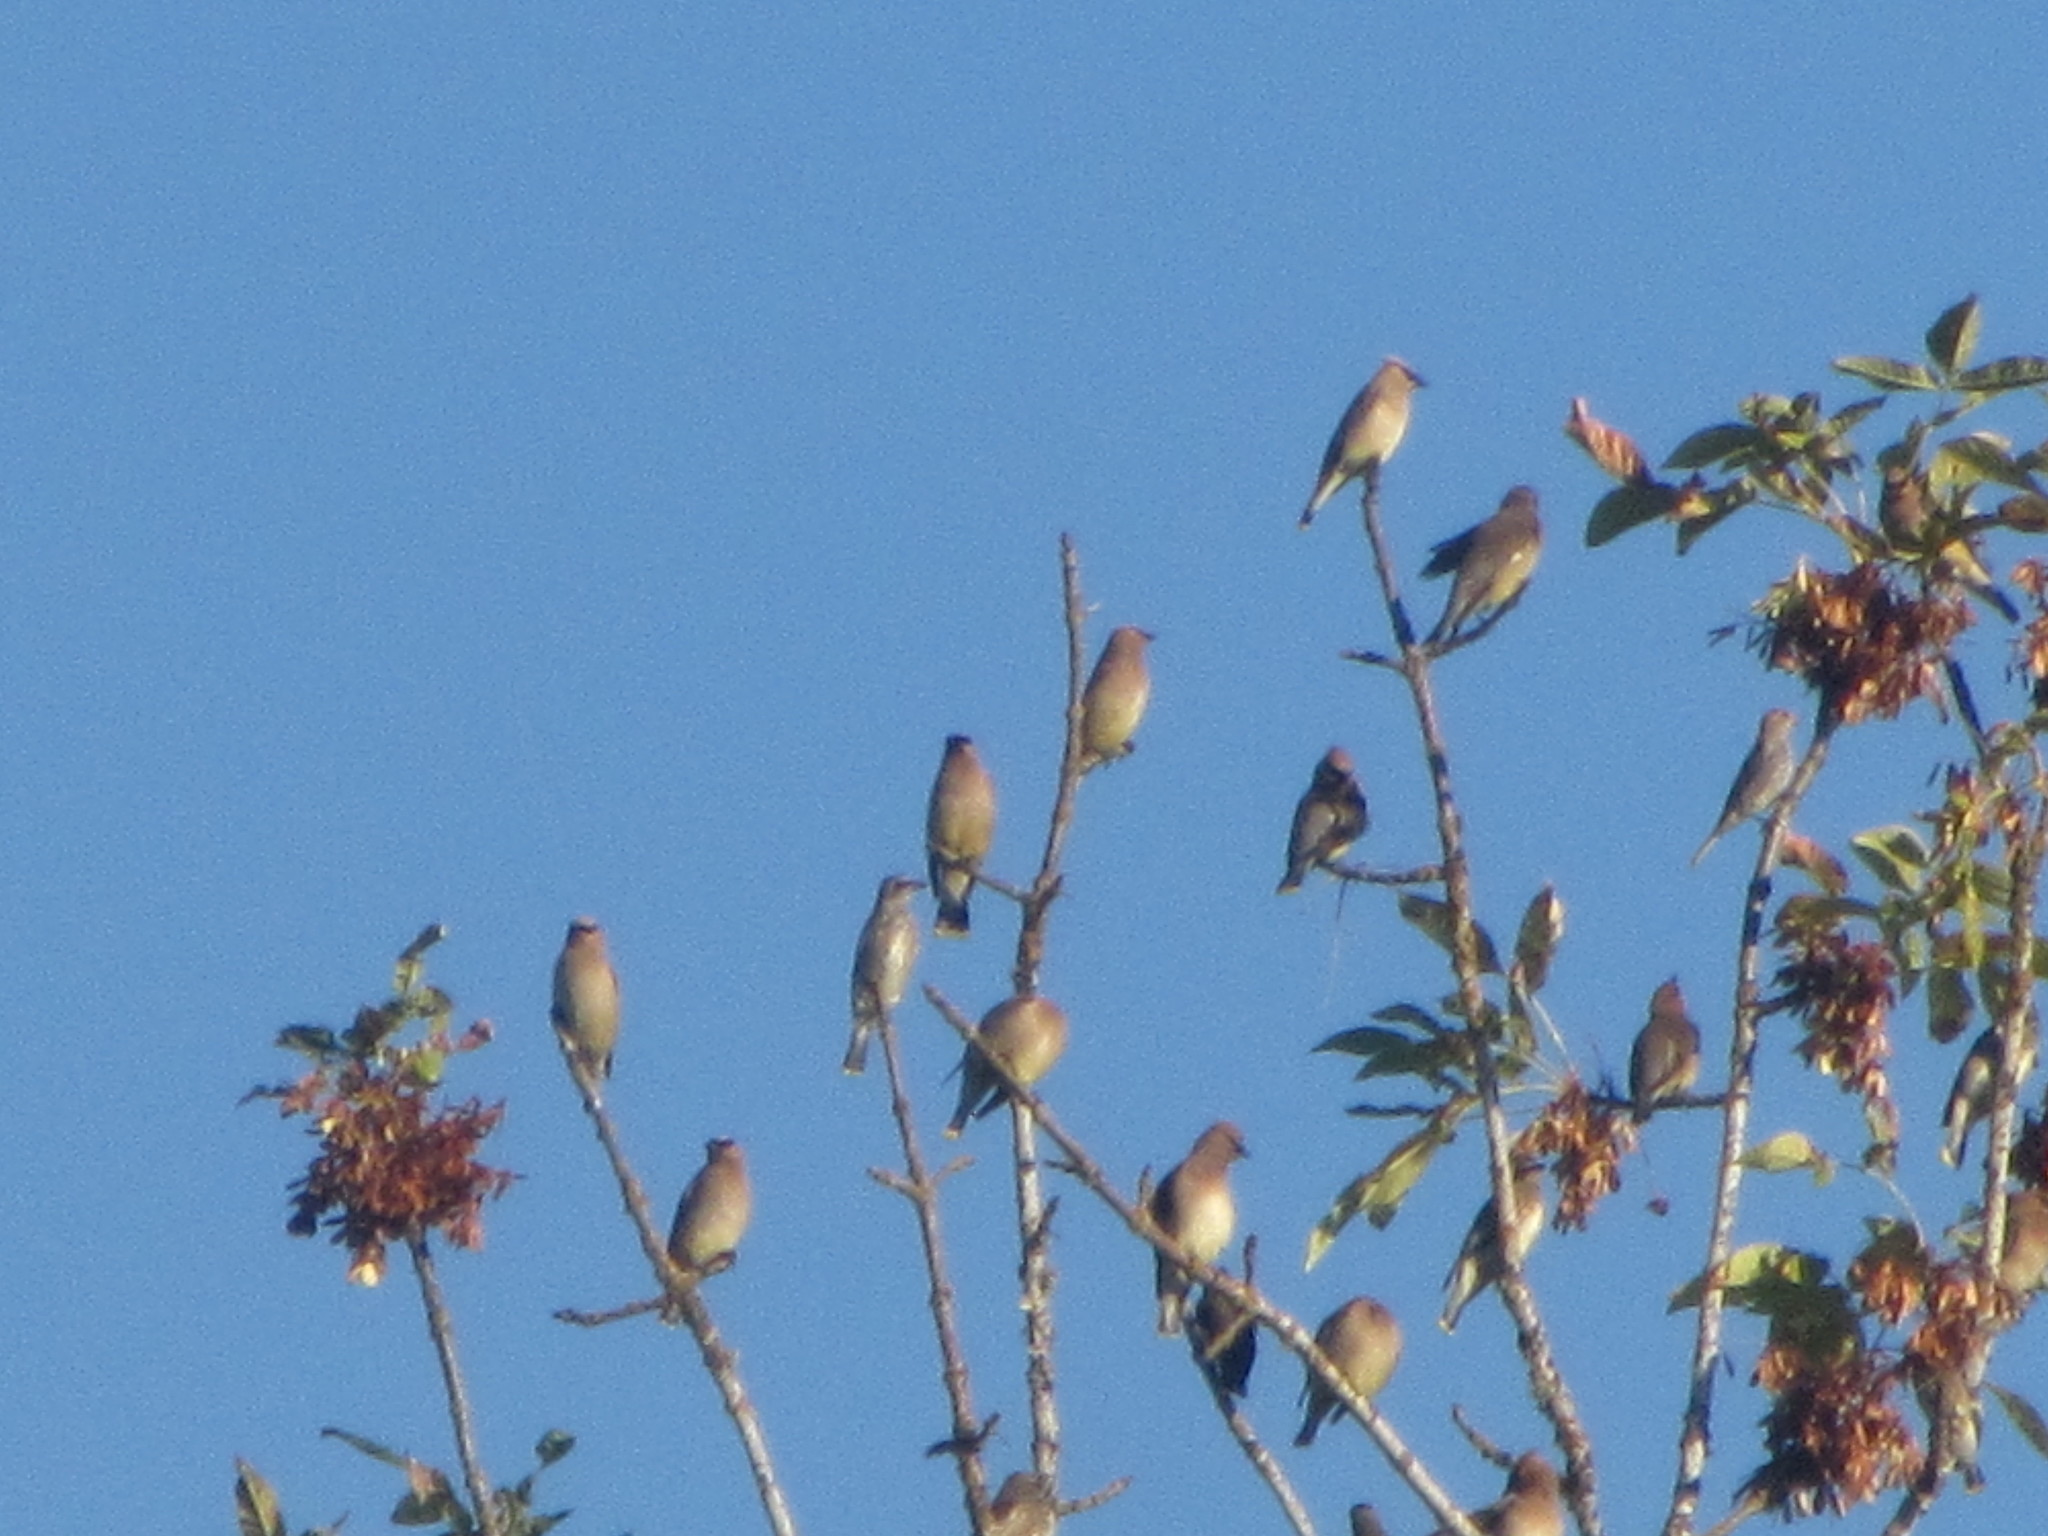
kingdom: Animalia
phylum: Chordata
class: Aves
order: Passeriformes
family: Bombycillidae
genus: Bombycilla
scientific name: Bombycilla cedrorum
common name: Cedar waxwing
